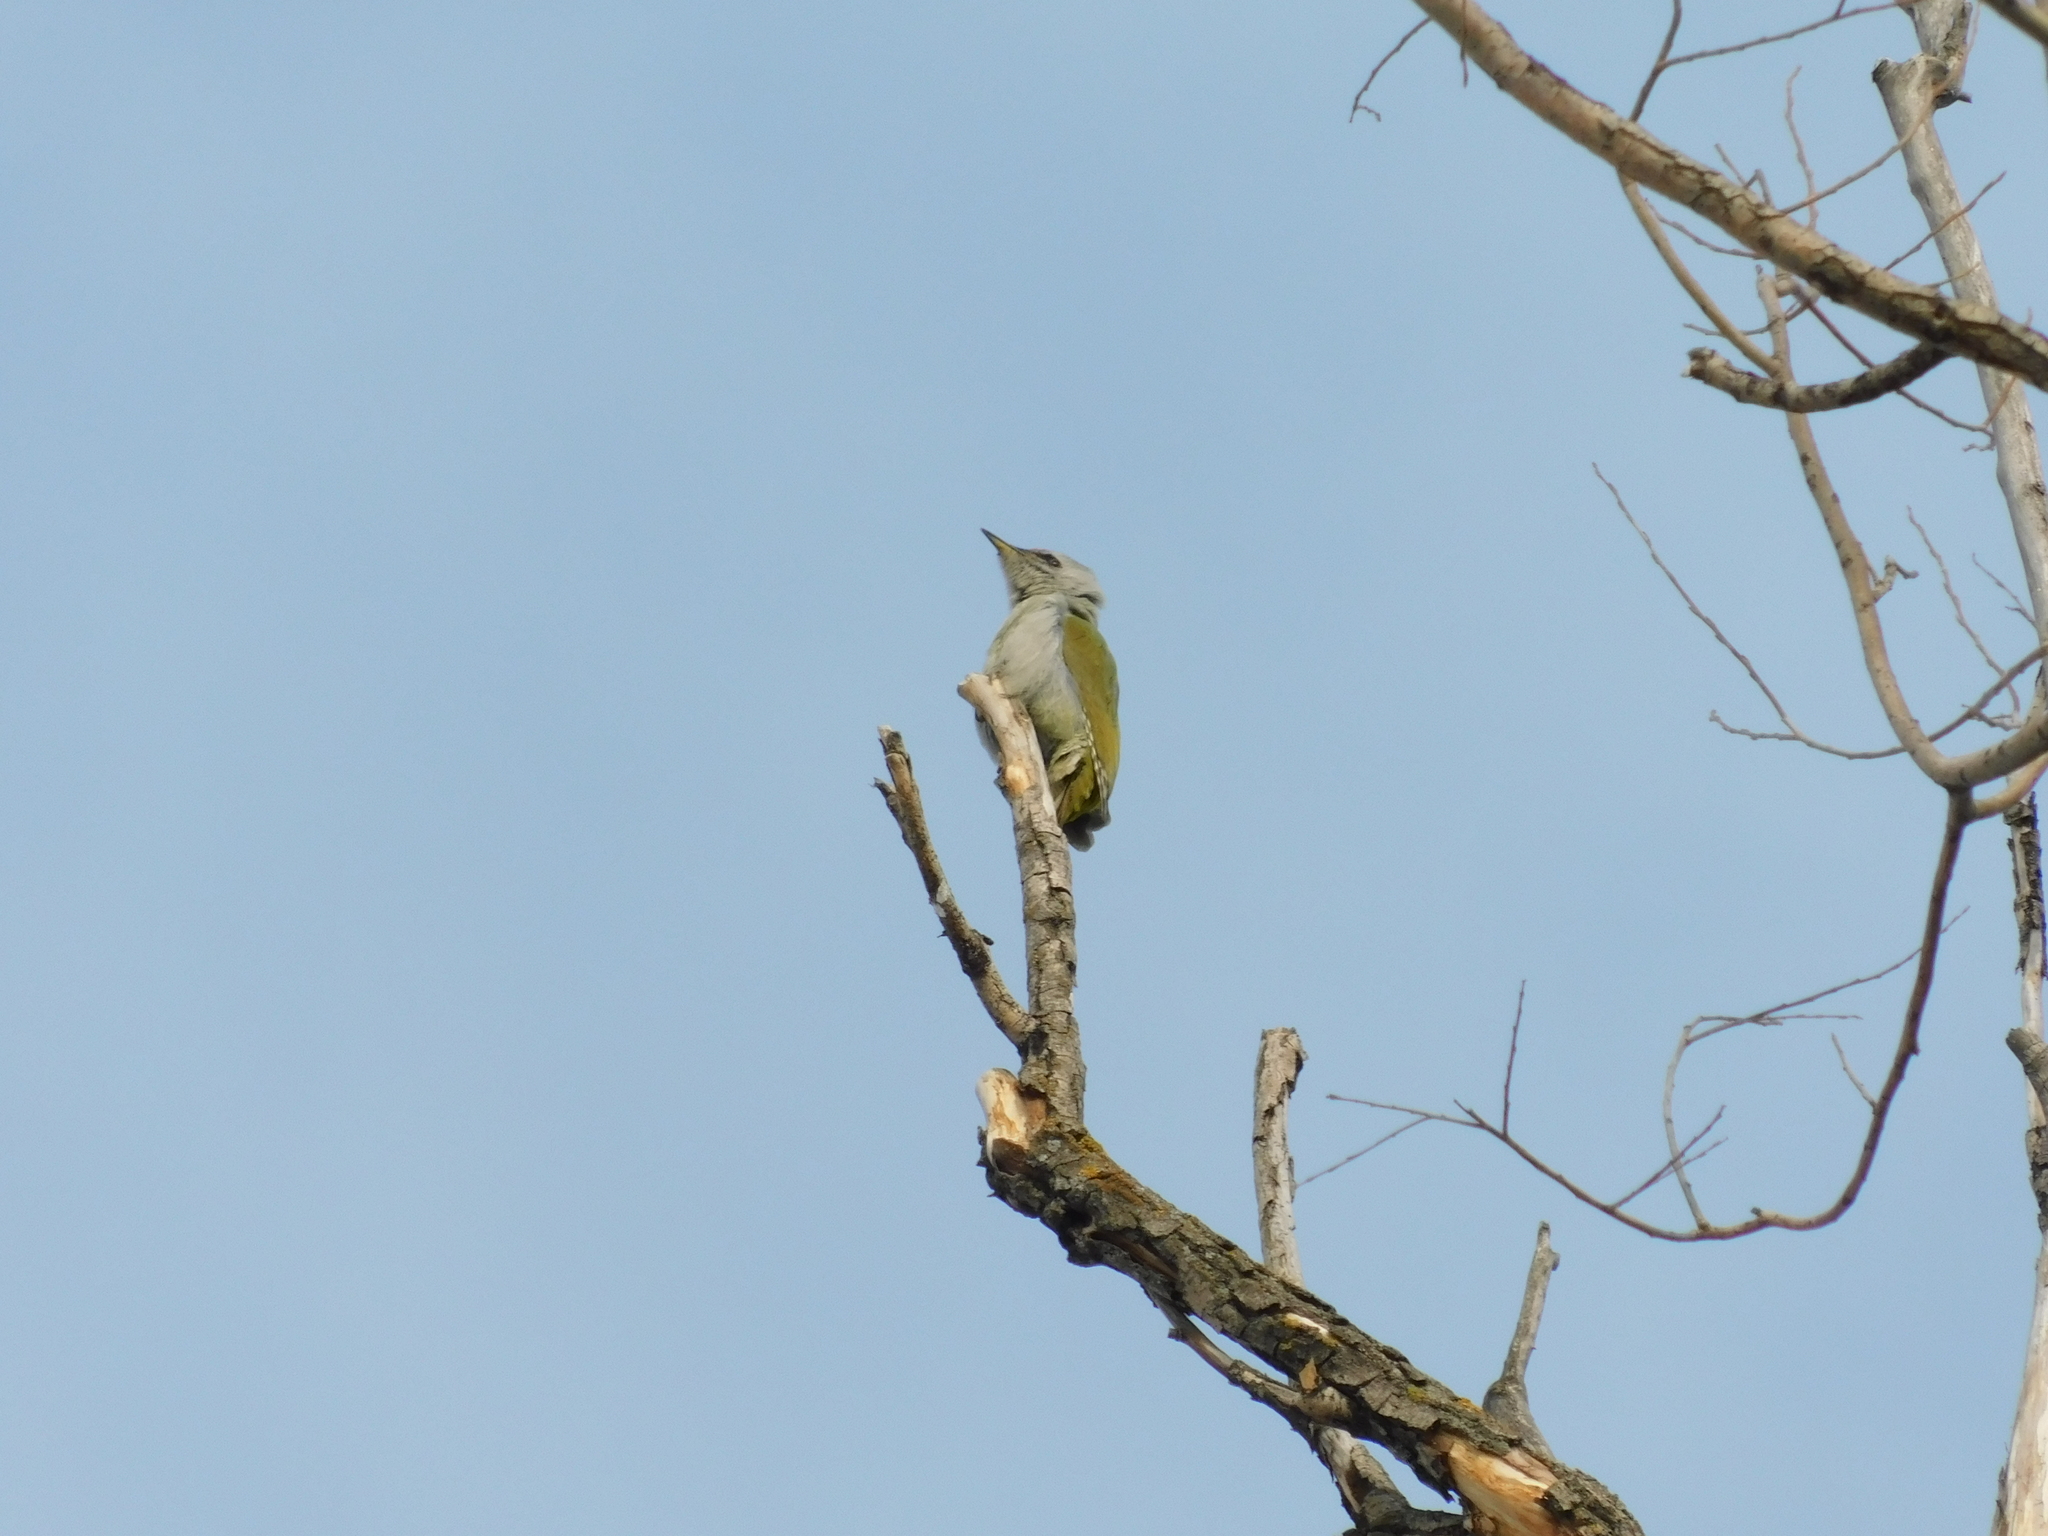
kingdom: Animalia
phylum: Chordata
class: Aves
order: Piciformes
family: Picidae
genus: Picus
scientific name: Picus canus
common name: Grey-headed woodpecker
